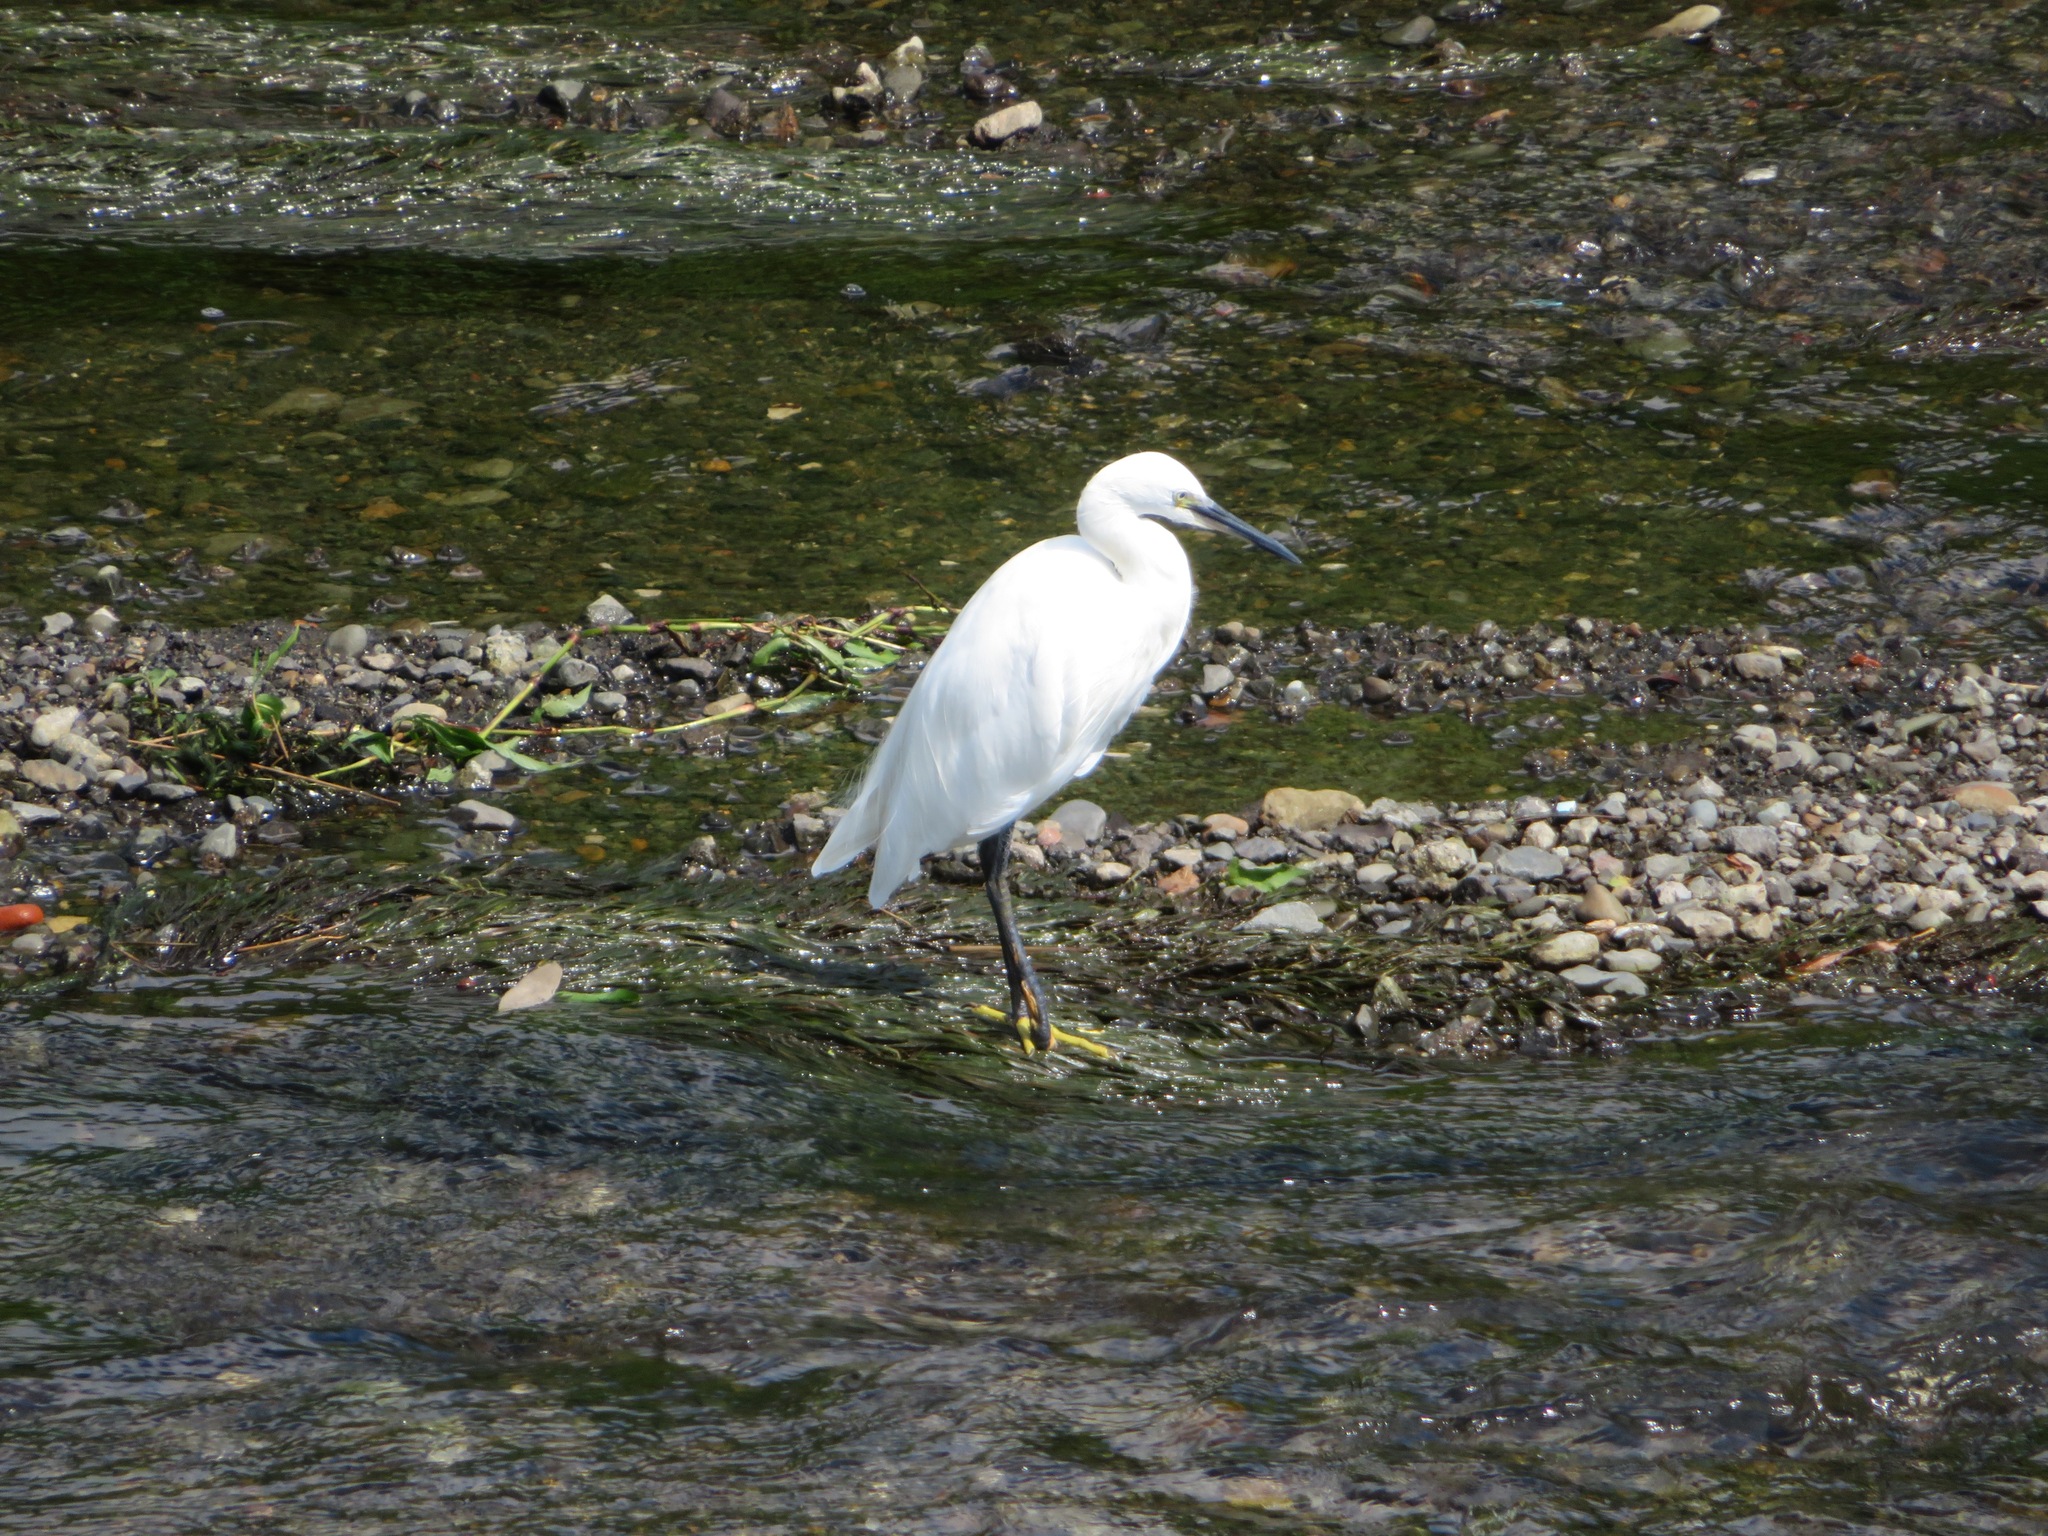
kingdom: Animalia
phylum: Chordata
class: Aves
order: Pelecaniformes
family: Ardeidae
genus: Egretta
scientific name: Egretta garzetta
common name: Little egret
